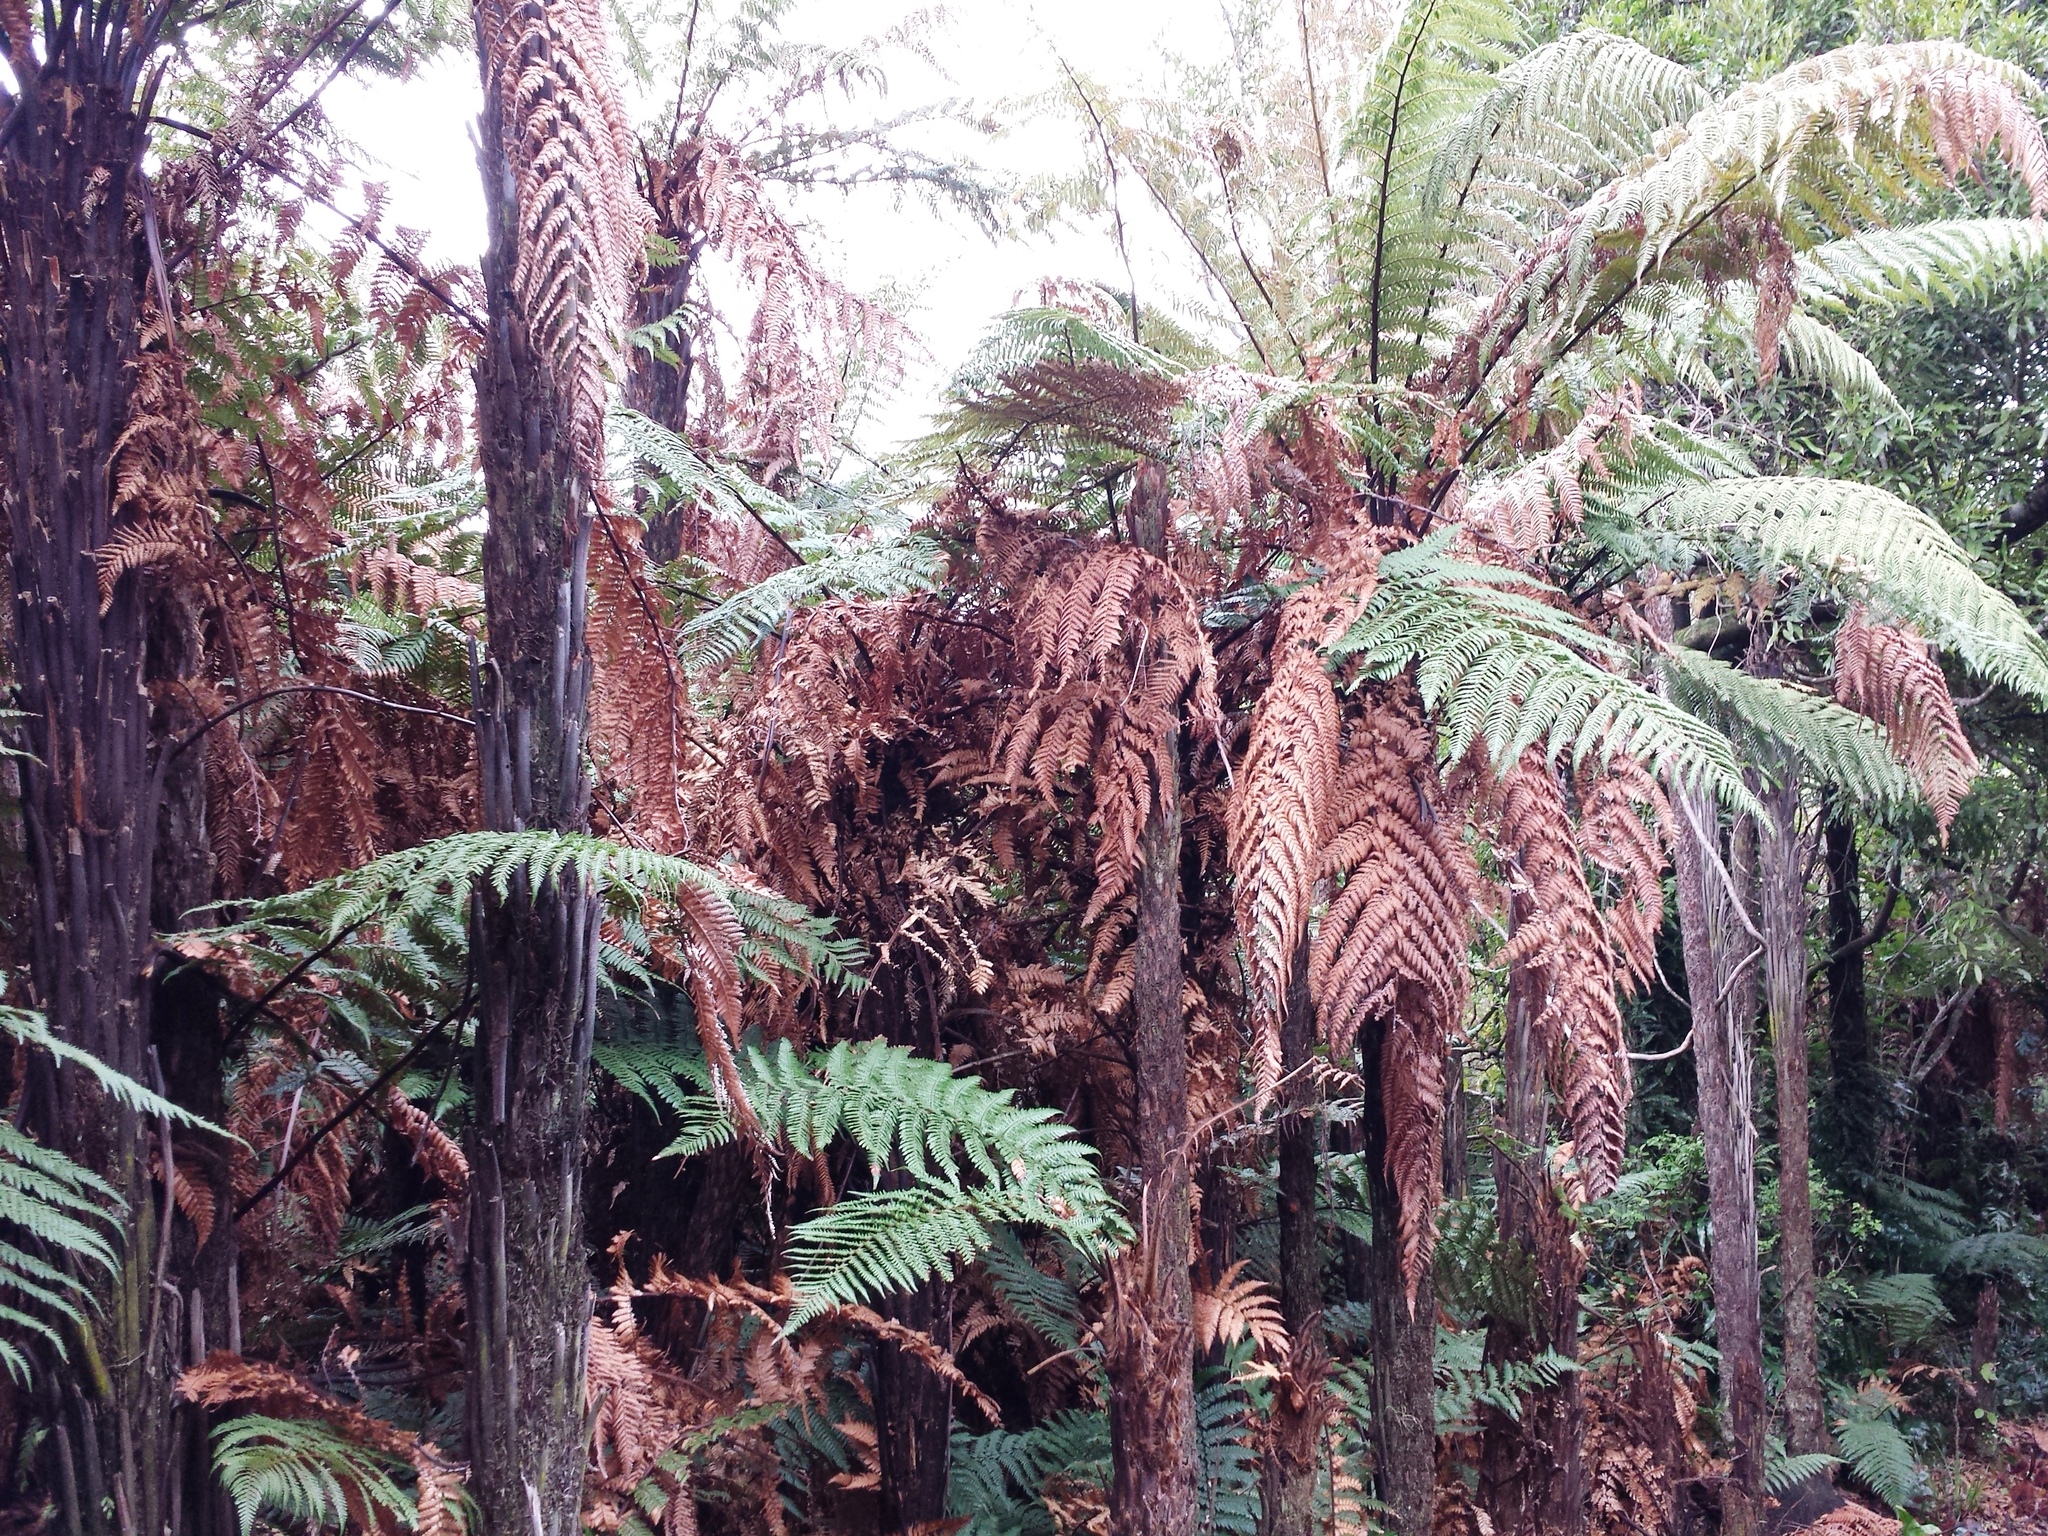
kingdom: Plantae
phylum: Tracheophyta
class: Polypodiopsida
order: Cyatheales
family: Dicksoniaceae
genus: Dicksonia
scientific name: Dicksonia squarrosa
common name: Hard treefern
